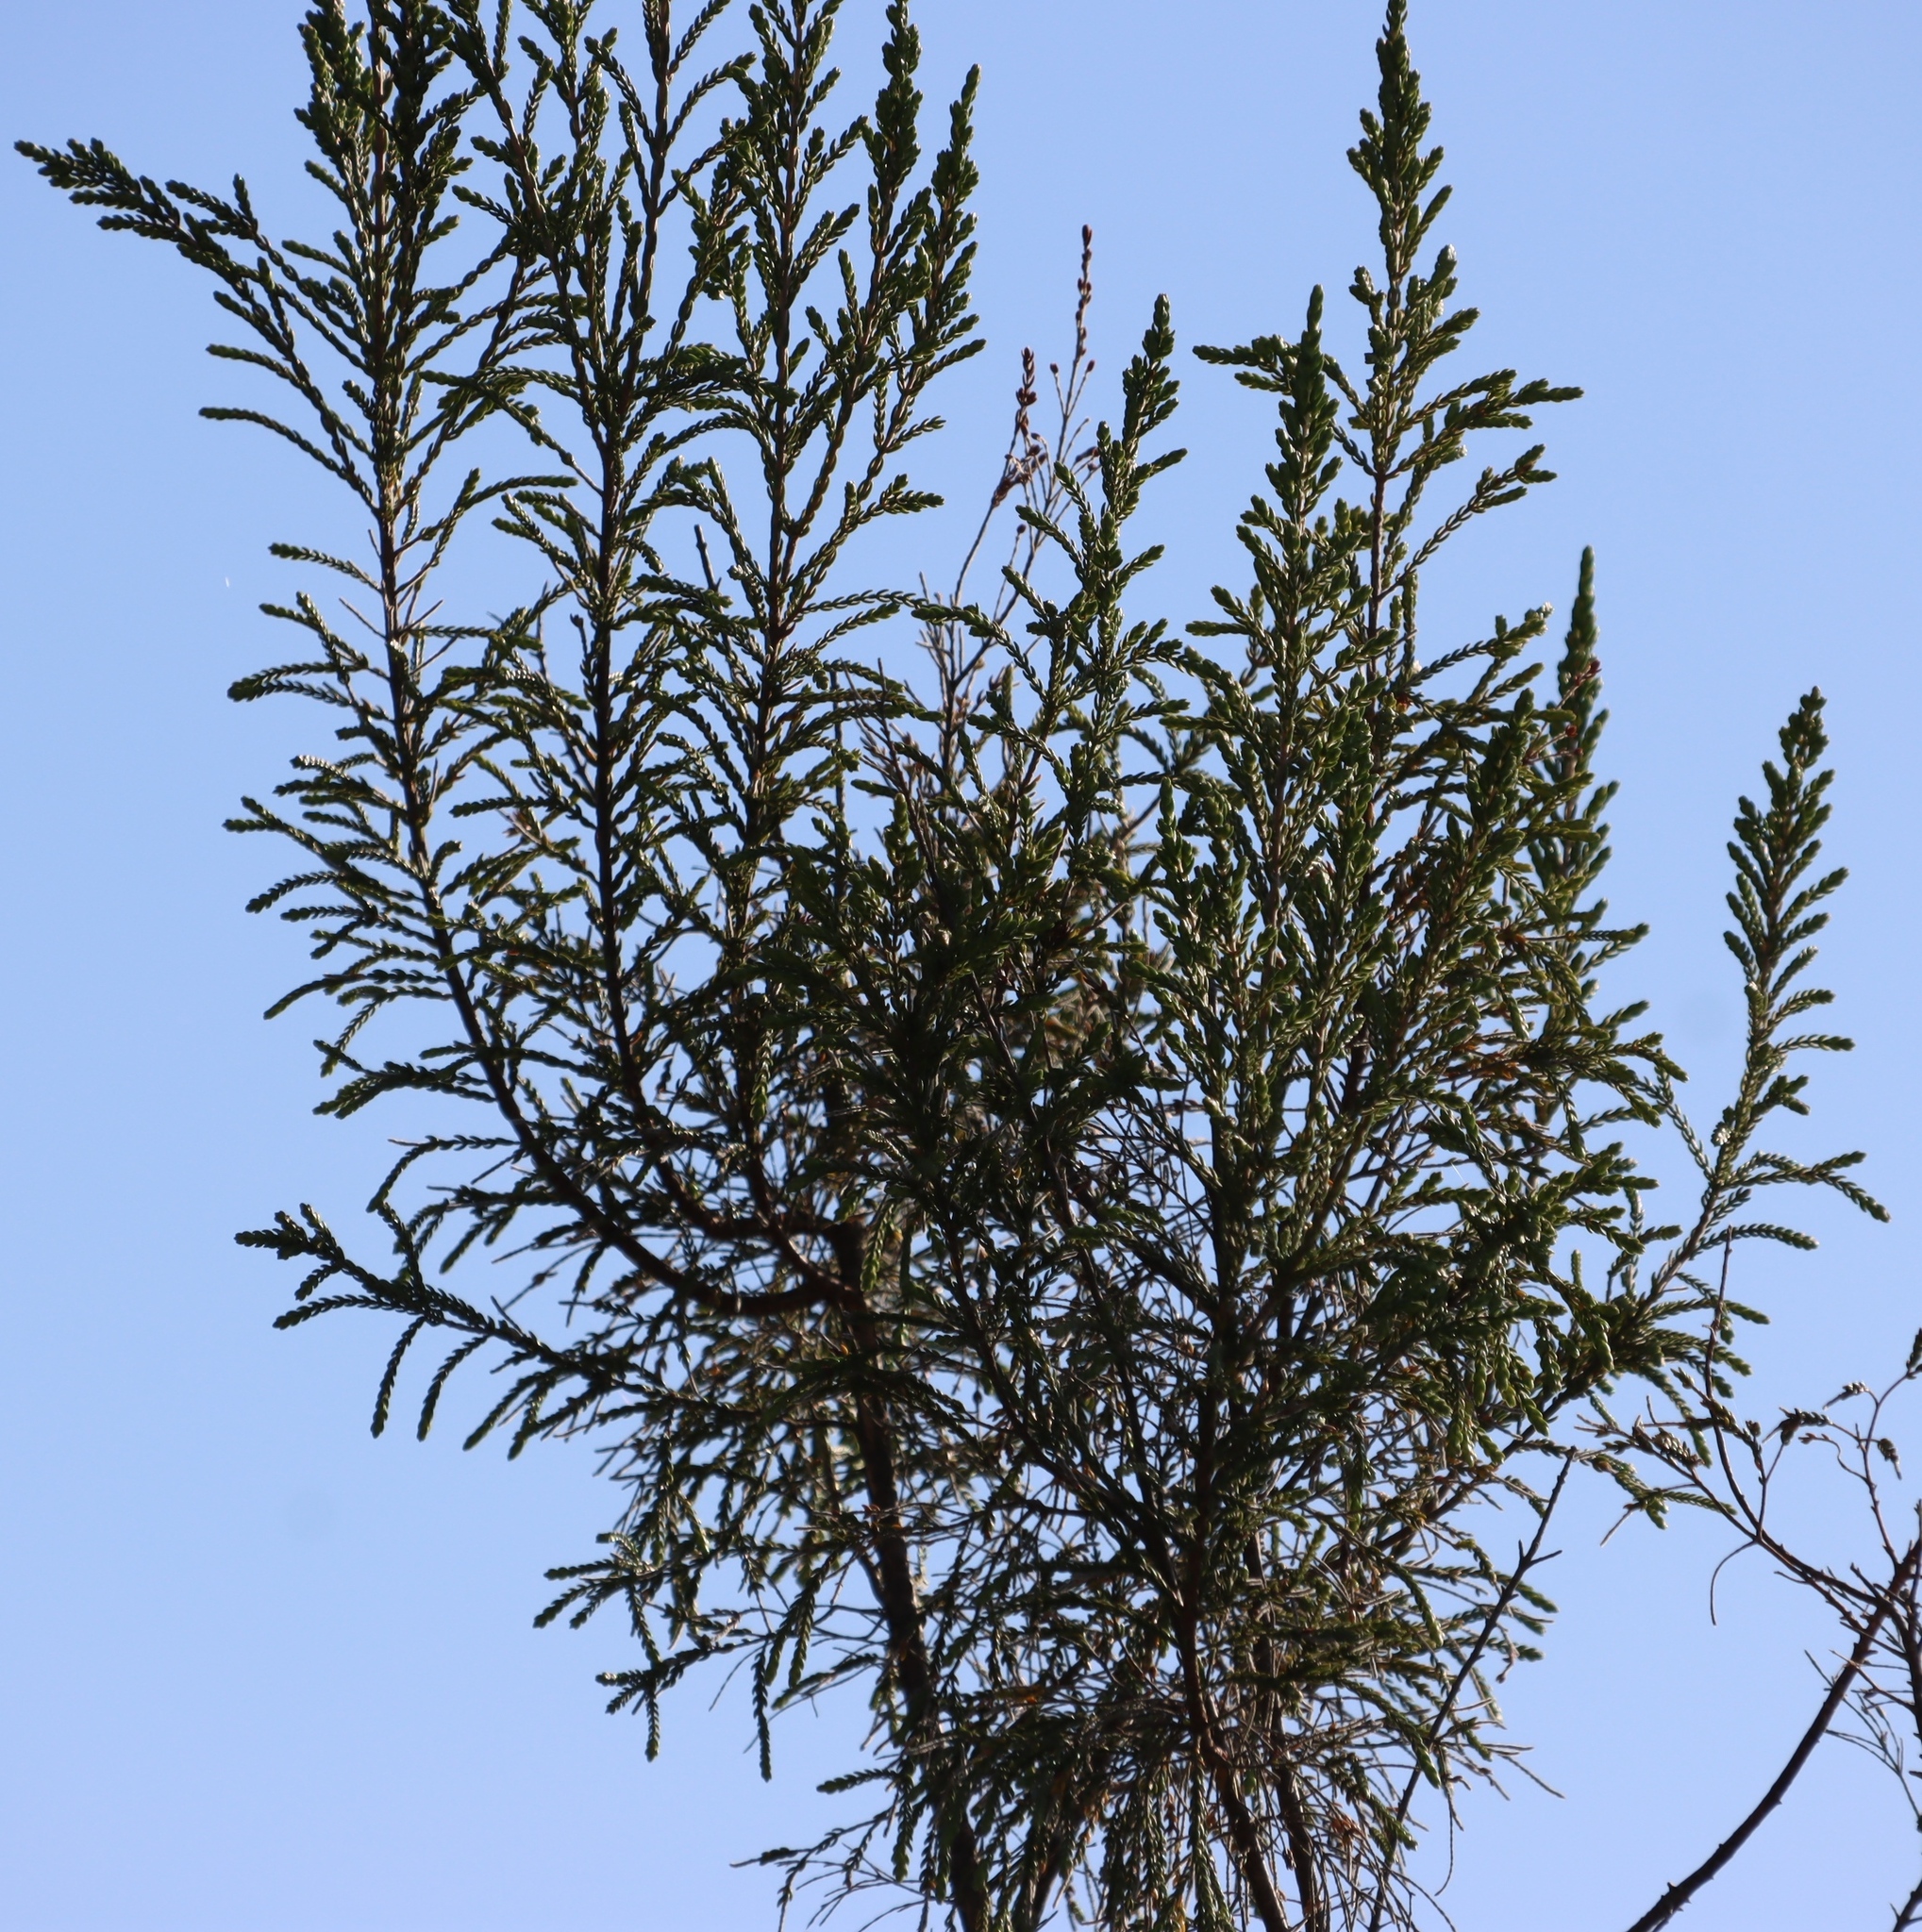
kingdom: Plantae
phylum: Tracheophyta
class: Magnoliopsida
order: Malvales
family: Thymelaeaceae
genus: Passerina
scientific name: Passerina falcifolia
